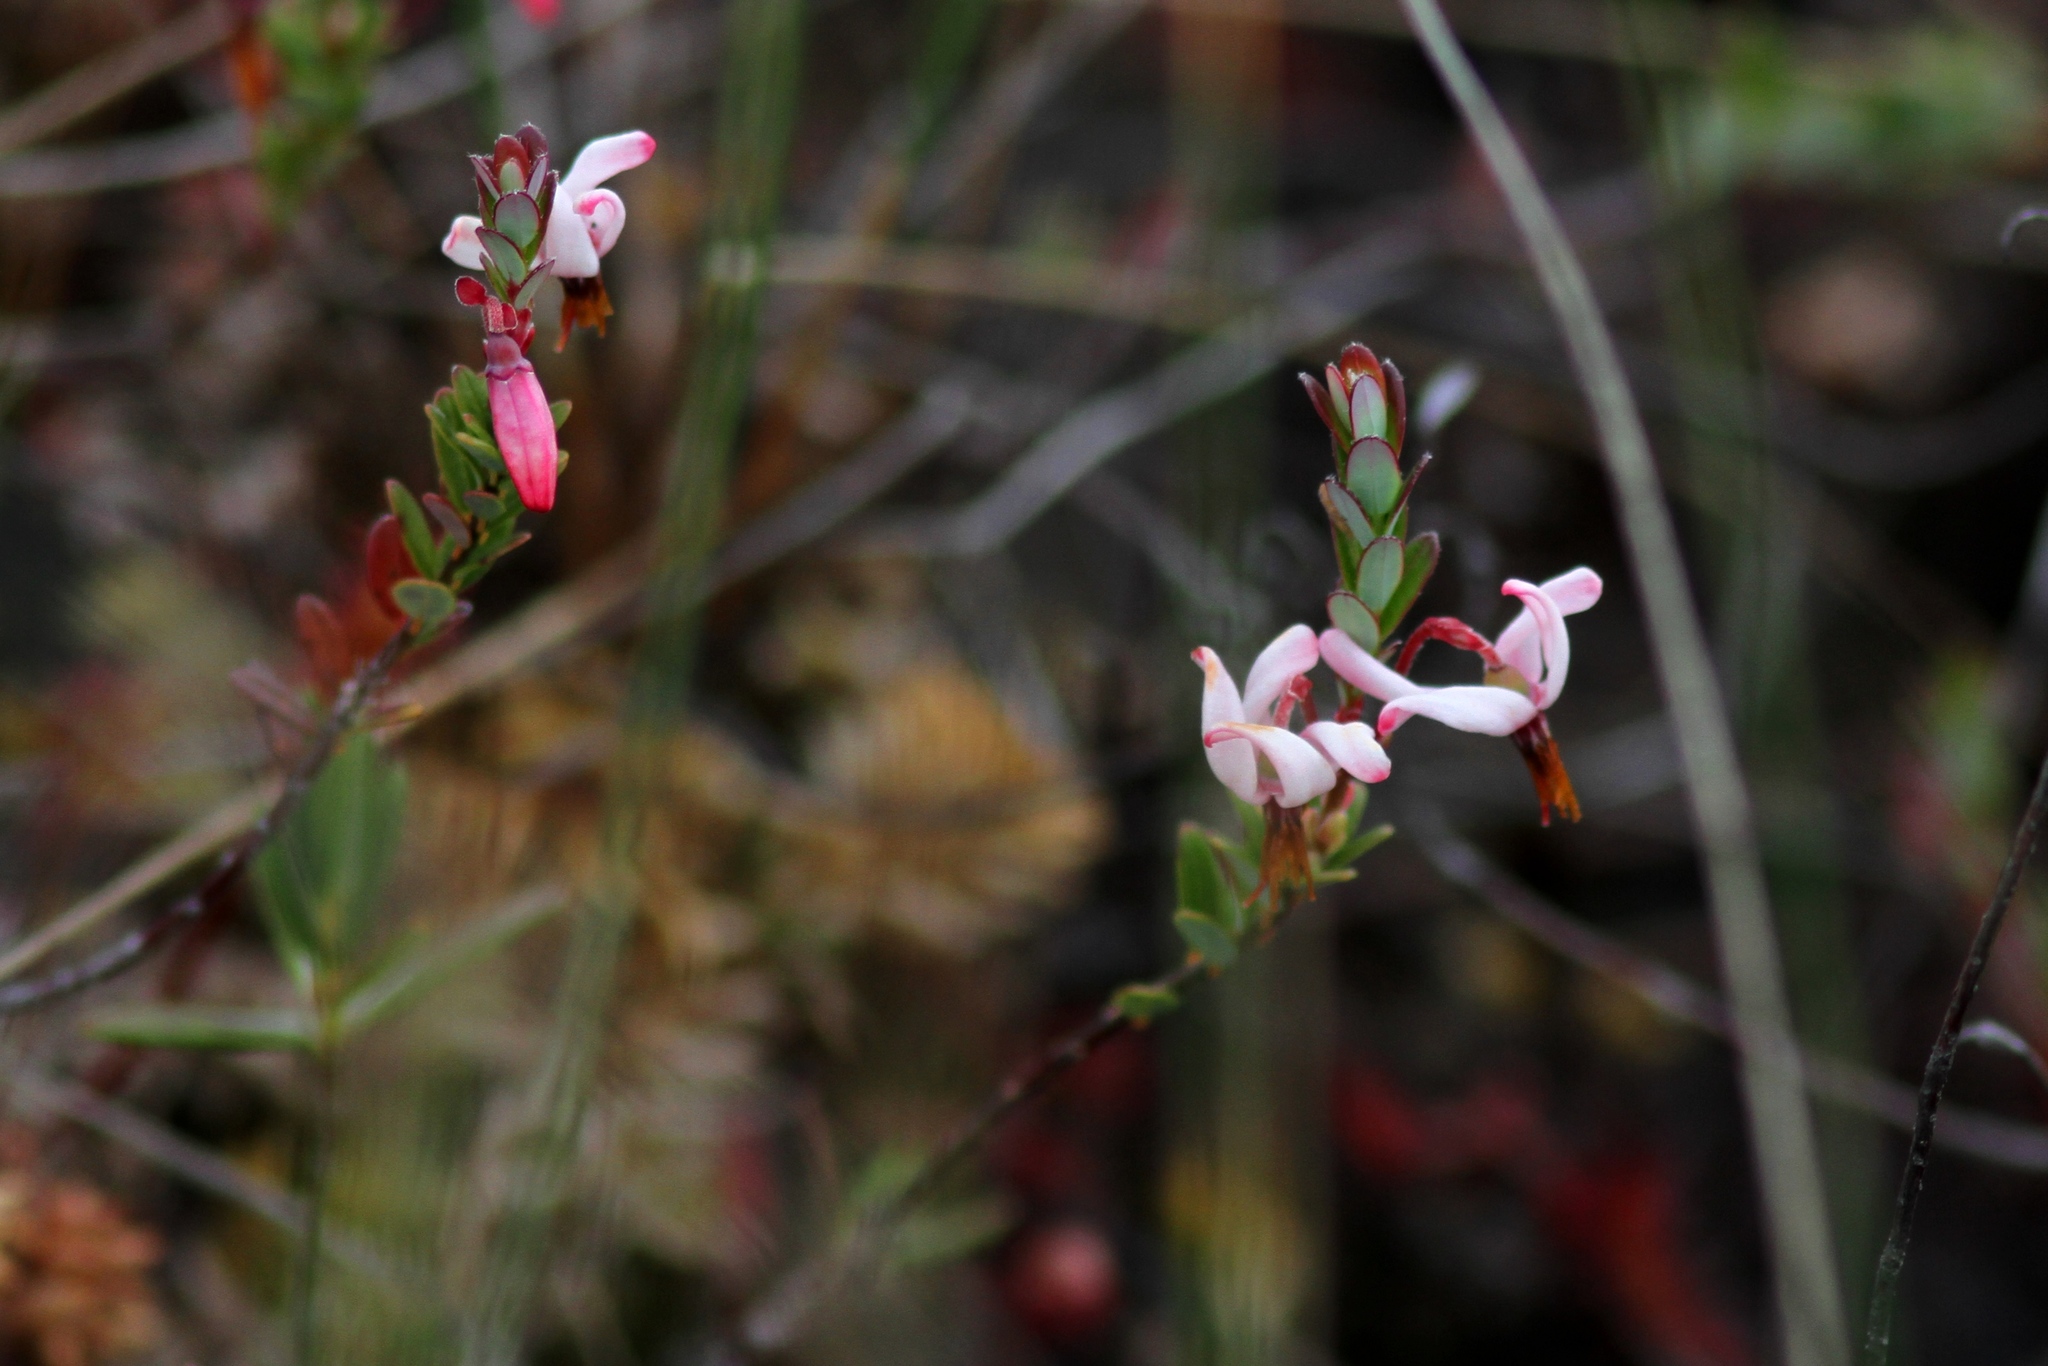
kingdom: Plantae
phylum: Tracheophyta
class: Magnoliopsida
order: Ericales
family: Ericaceae
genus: Vaccinium
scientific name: Vaccinium macrocarpon
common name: American cranberry
